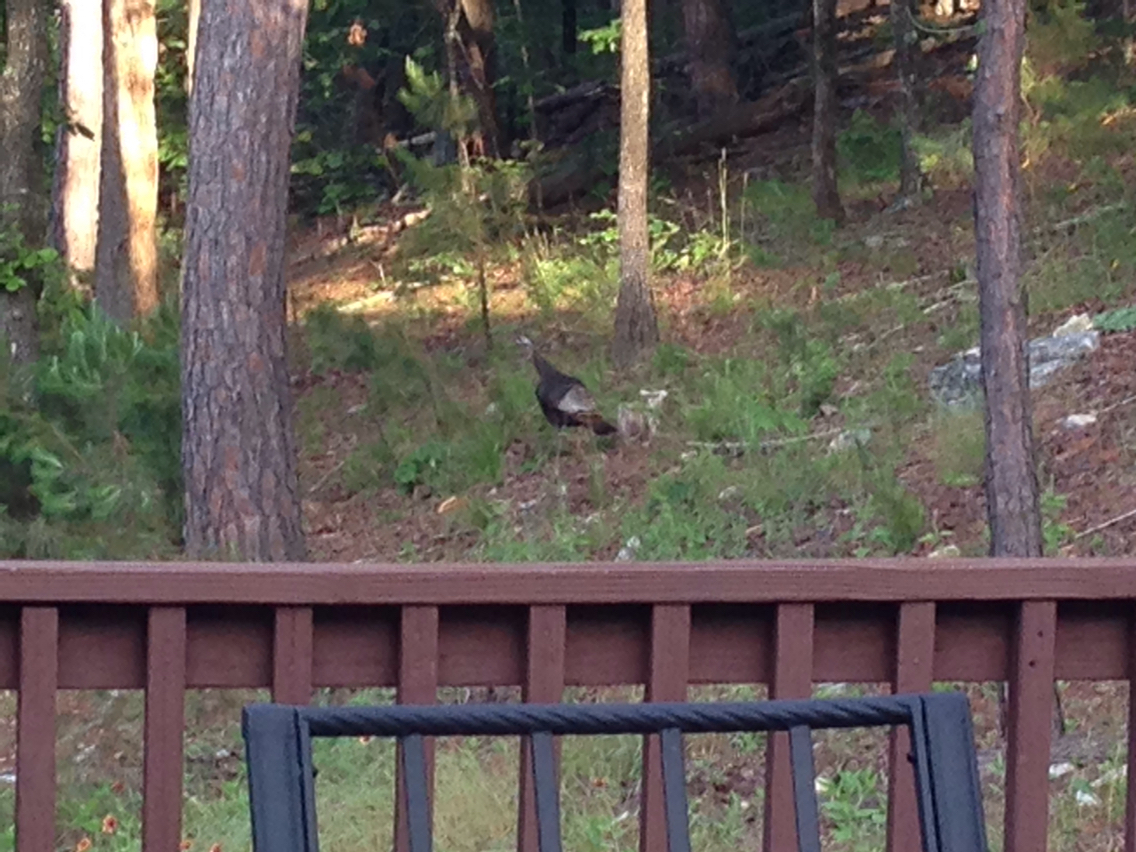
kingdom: Animalia
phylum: Chordata
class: Aves
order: Galliformes
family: Phasianidae
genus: Meleagris
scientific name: Meleagris gallopavo
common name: Wild turkey
